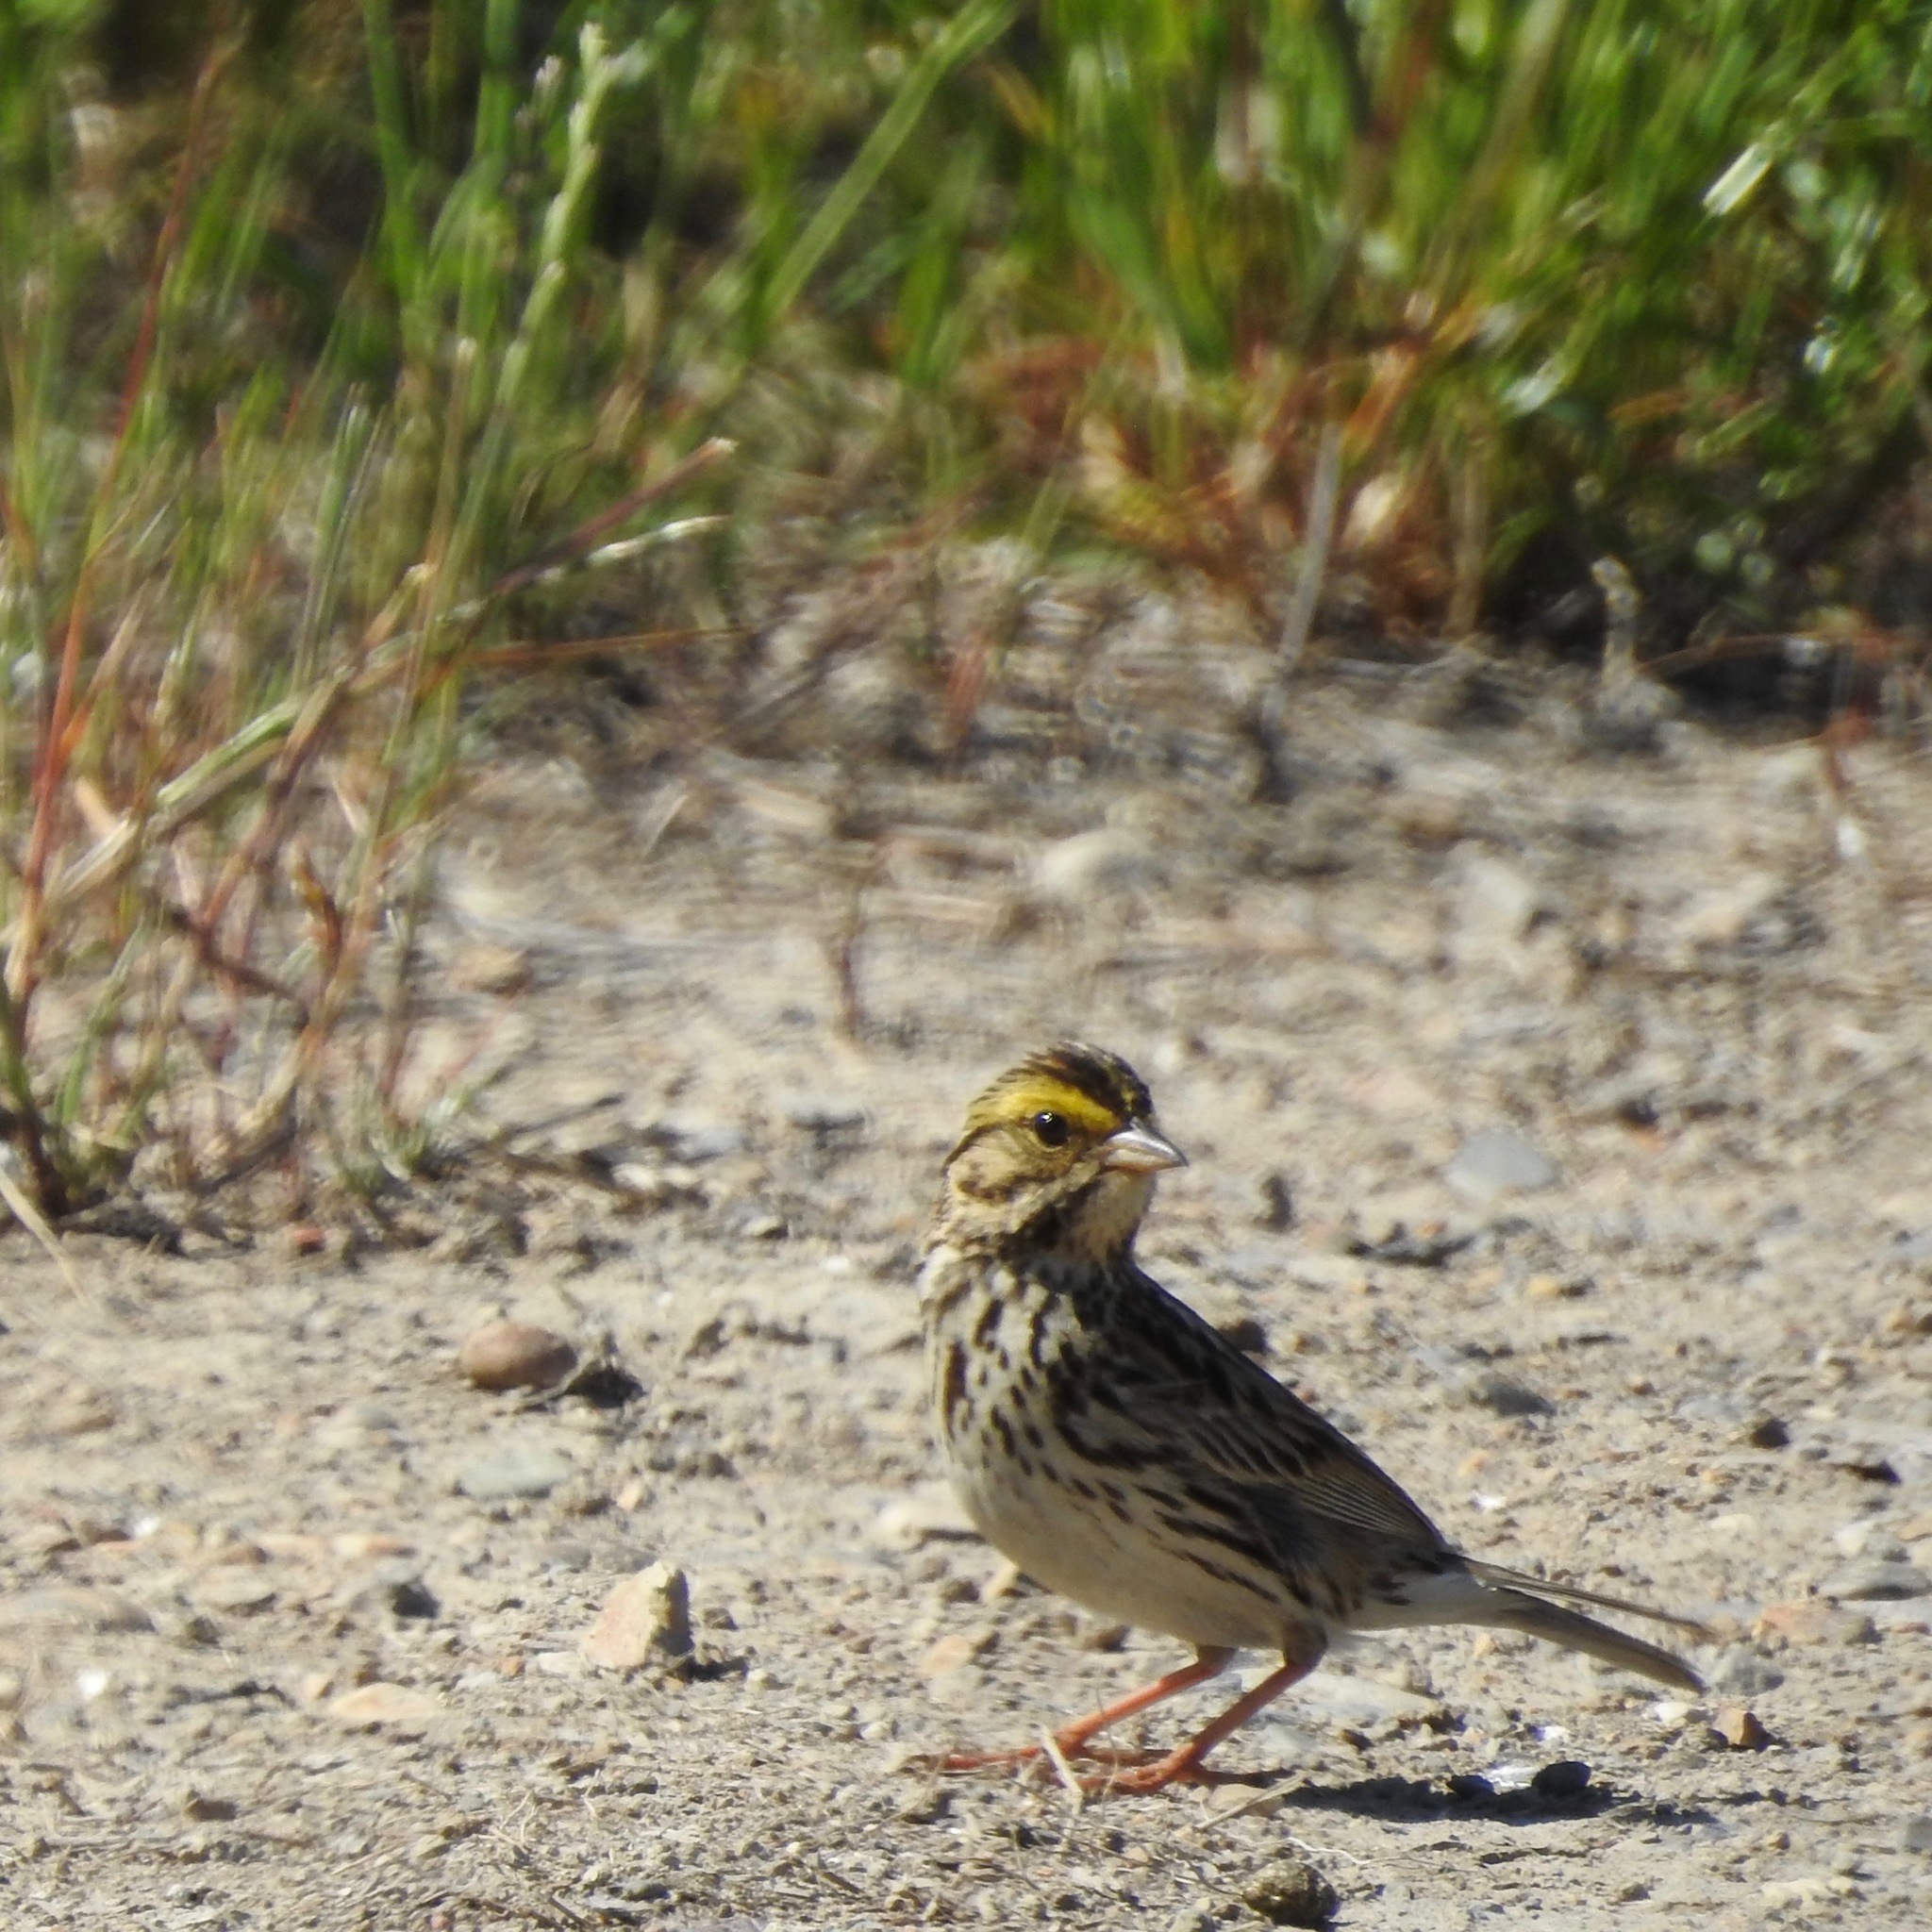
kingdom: Animalia
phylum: Chordata
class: Aves
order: Passeriformes
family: Passerellidae
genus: Passerculus
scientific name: Passerculus sandwichensis
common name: Savannah sparrow
